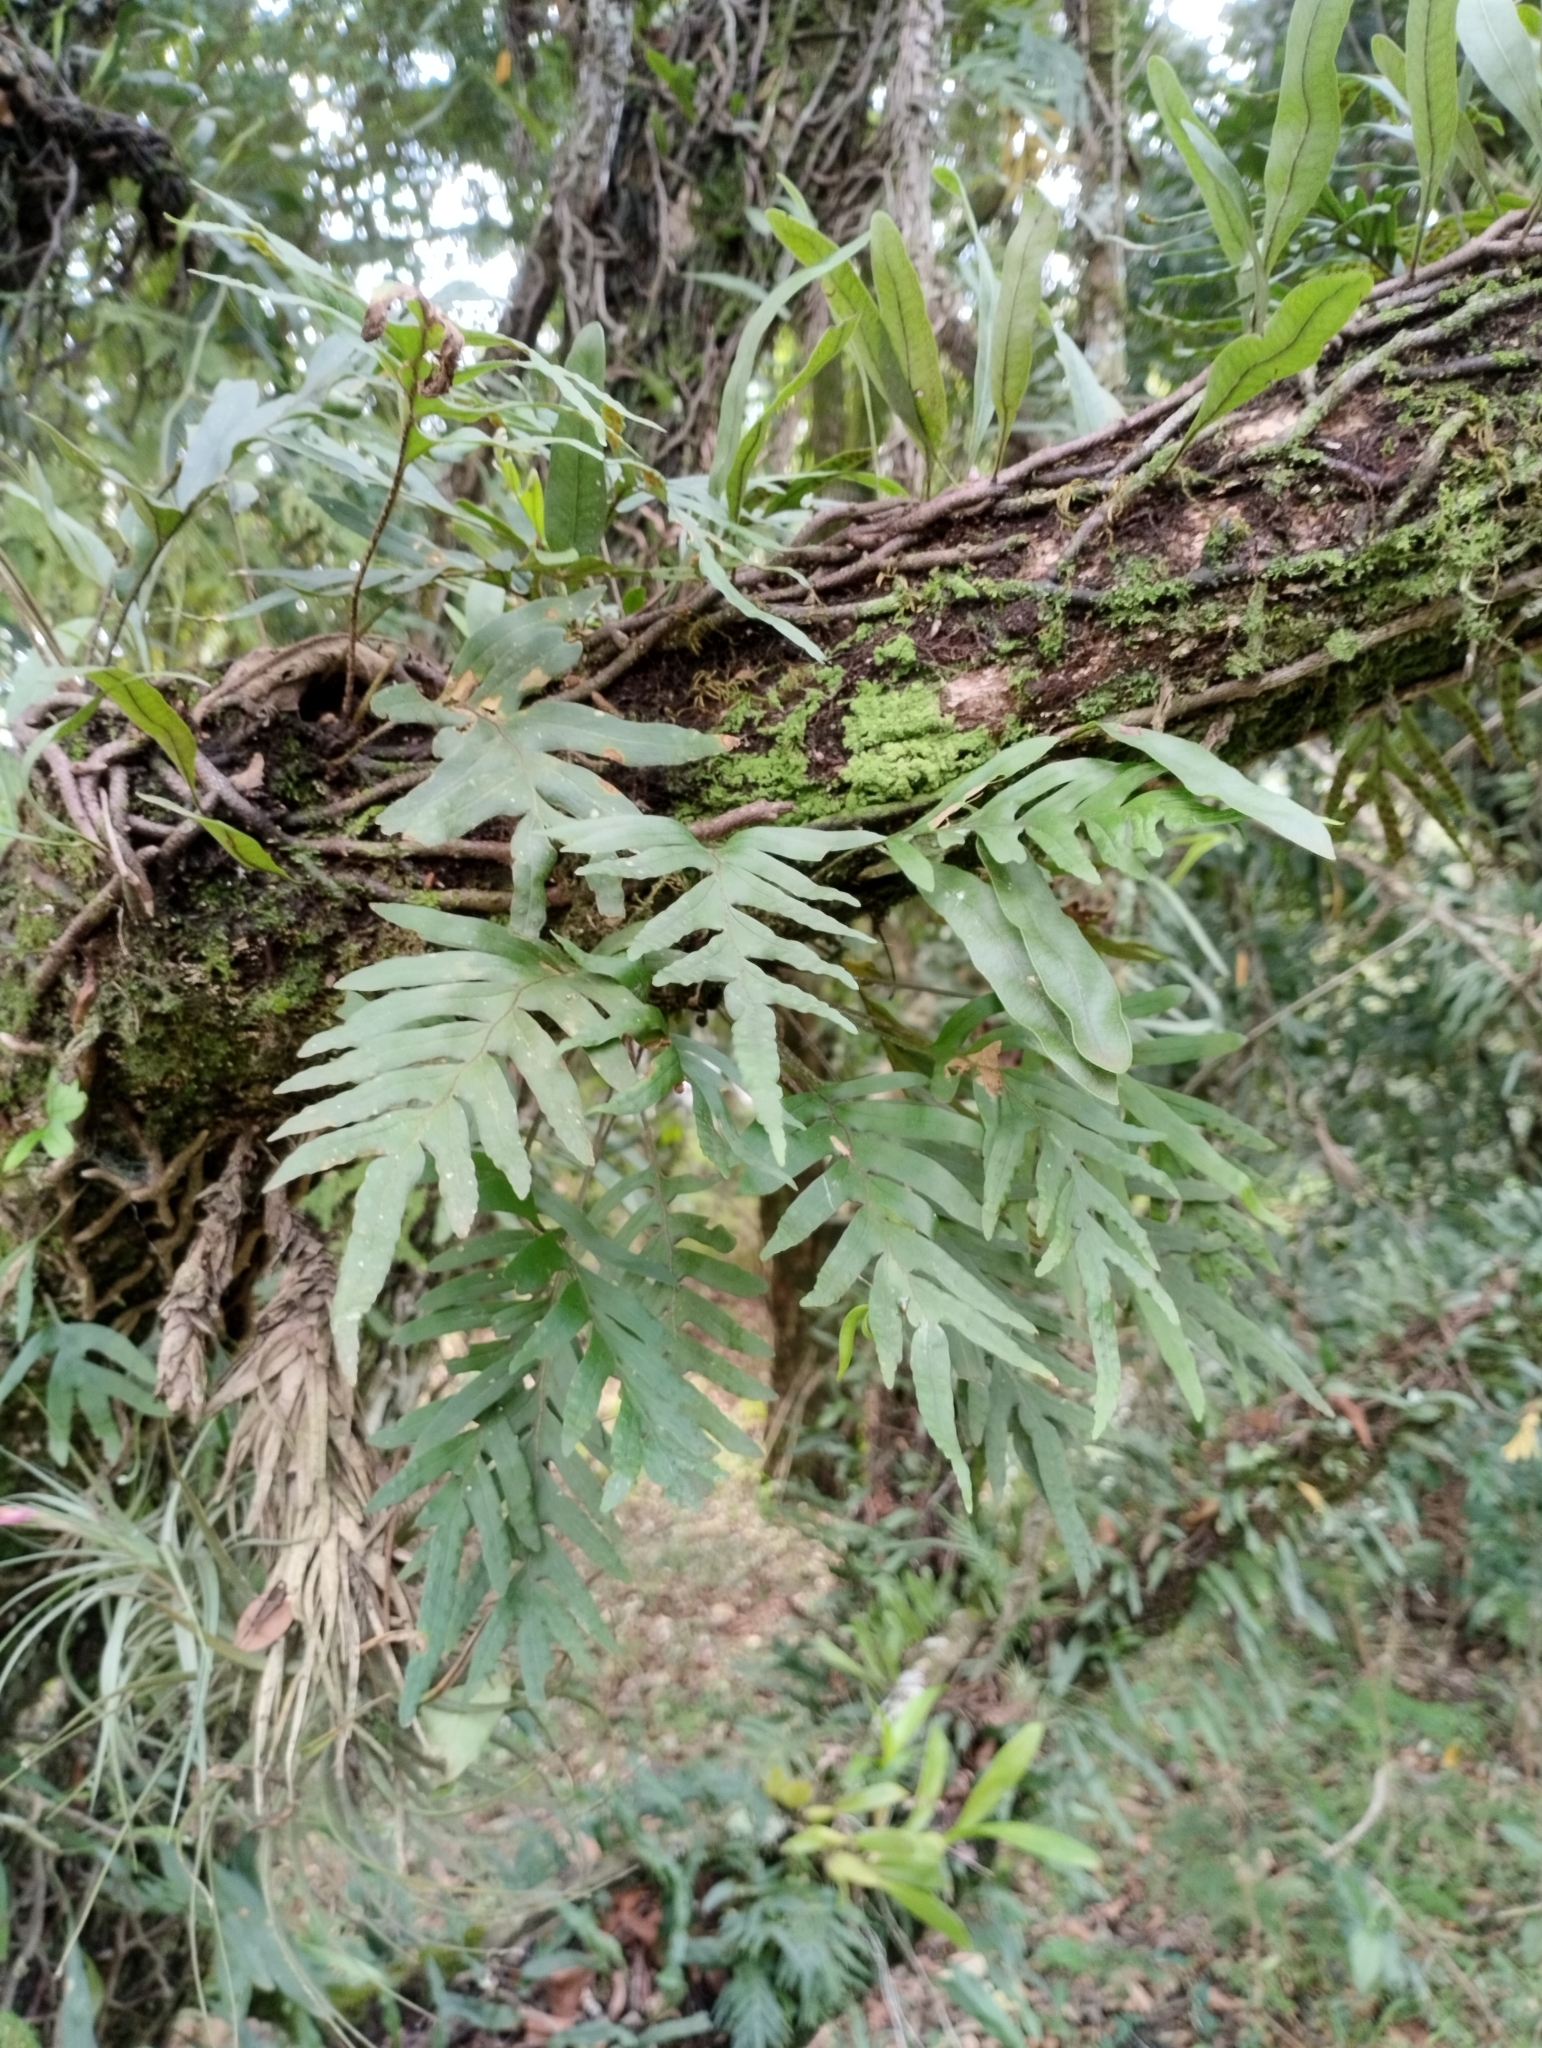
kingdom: Plantae
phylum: Tracheophyta
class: Polypodiopsida
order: Polypodiales
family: Polypodiaceae
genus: Pleopeltis
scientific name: Pleopeltis pleopeltifolia
